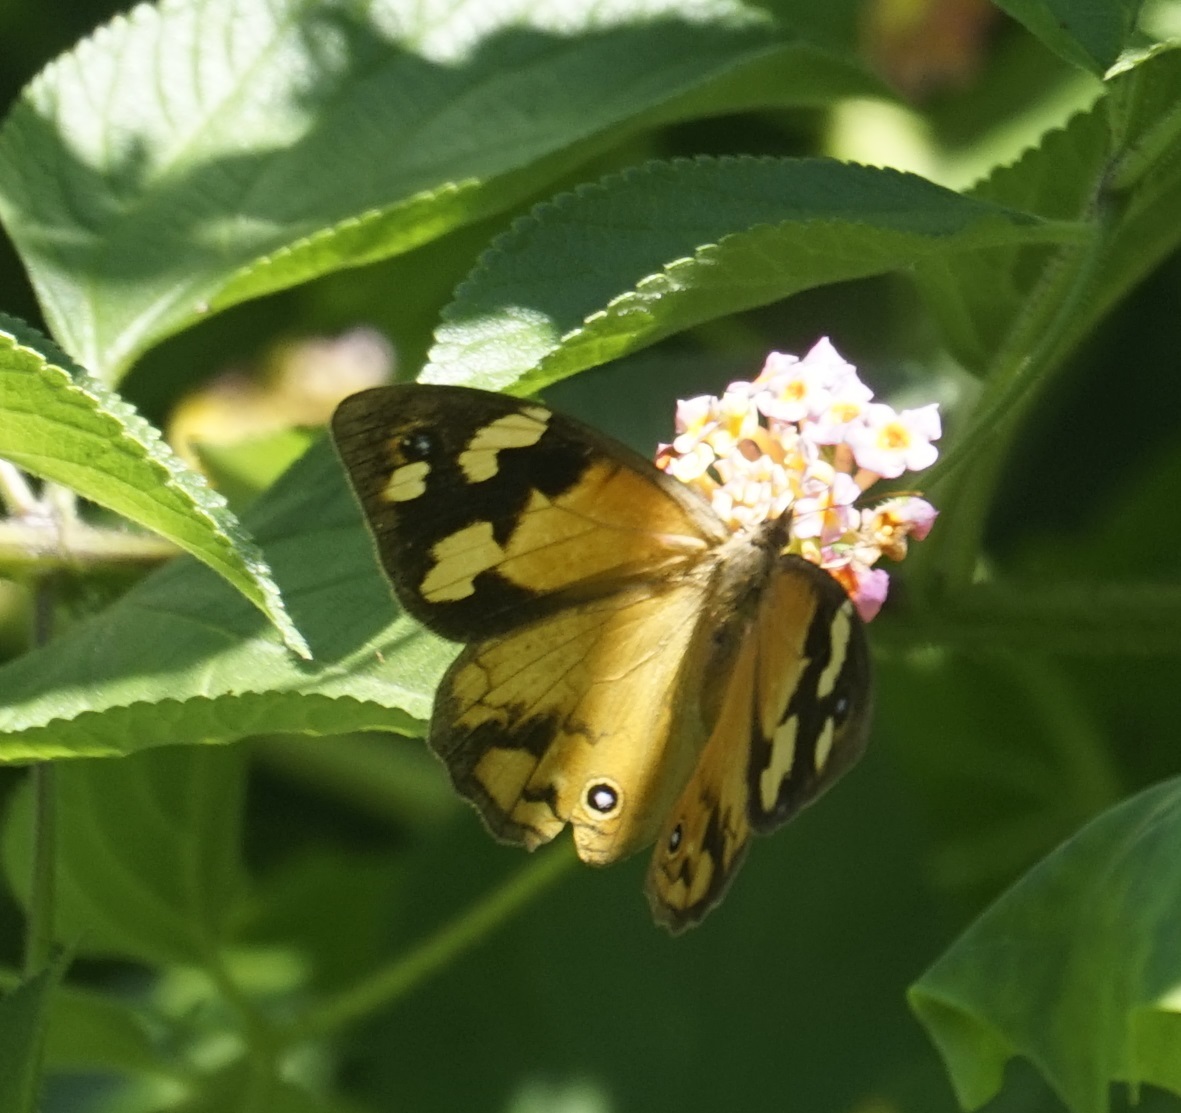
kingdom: Animalia
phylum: Arthropoda
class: Insecta
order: Lepidoptera
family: Nymphalidae
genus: Heteronympha
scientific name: Heteronympha merope
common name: Common brown
